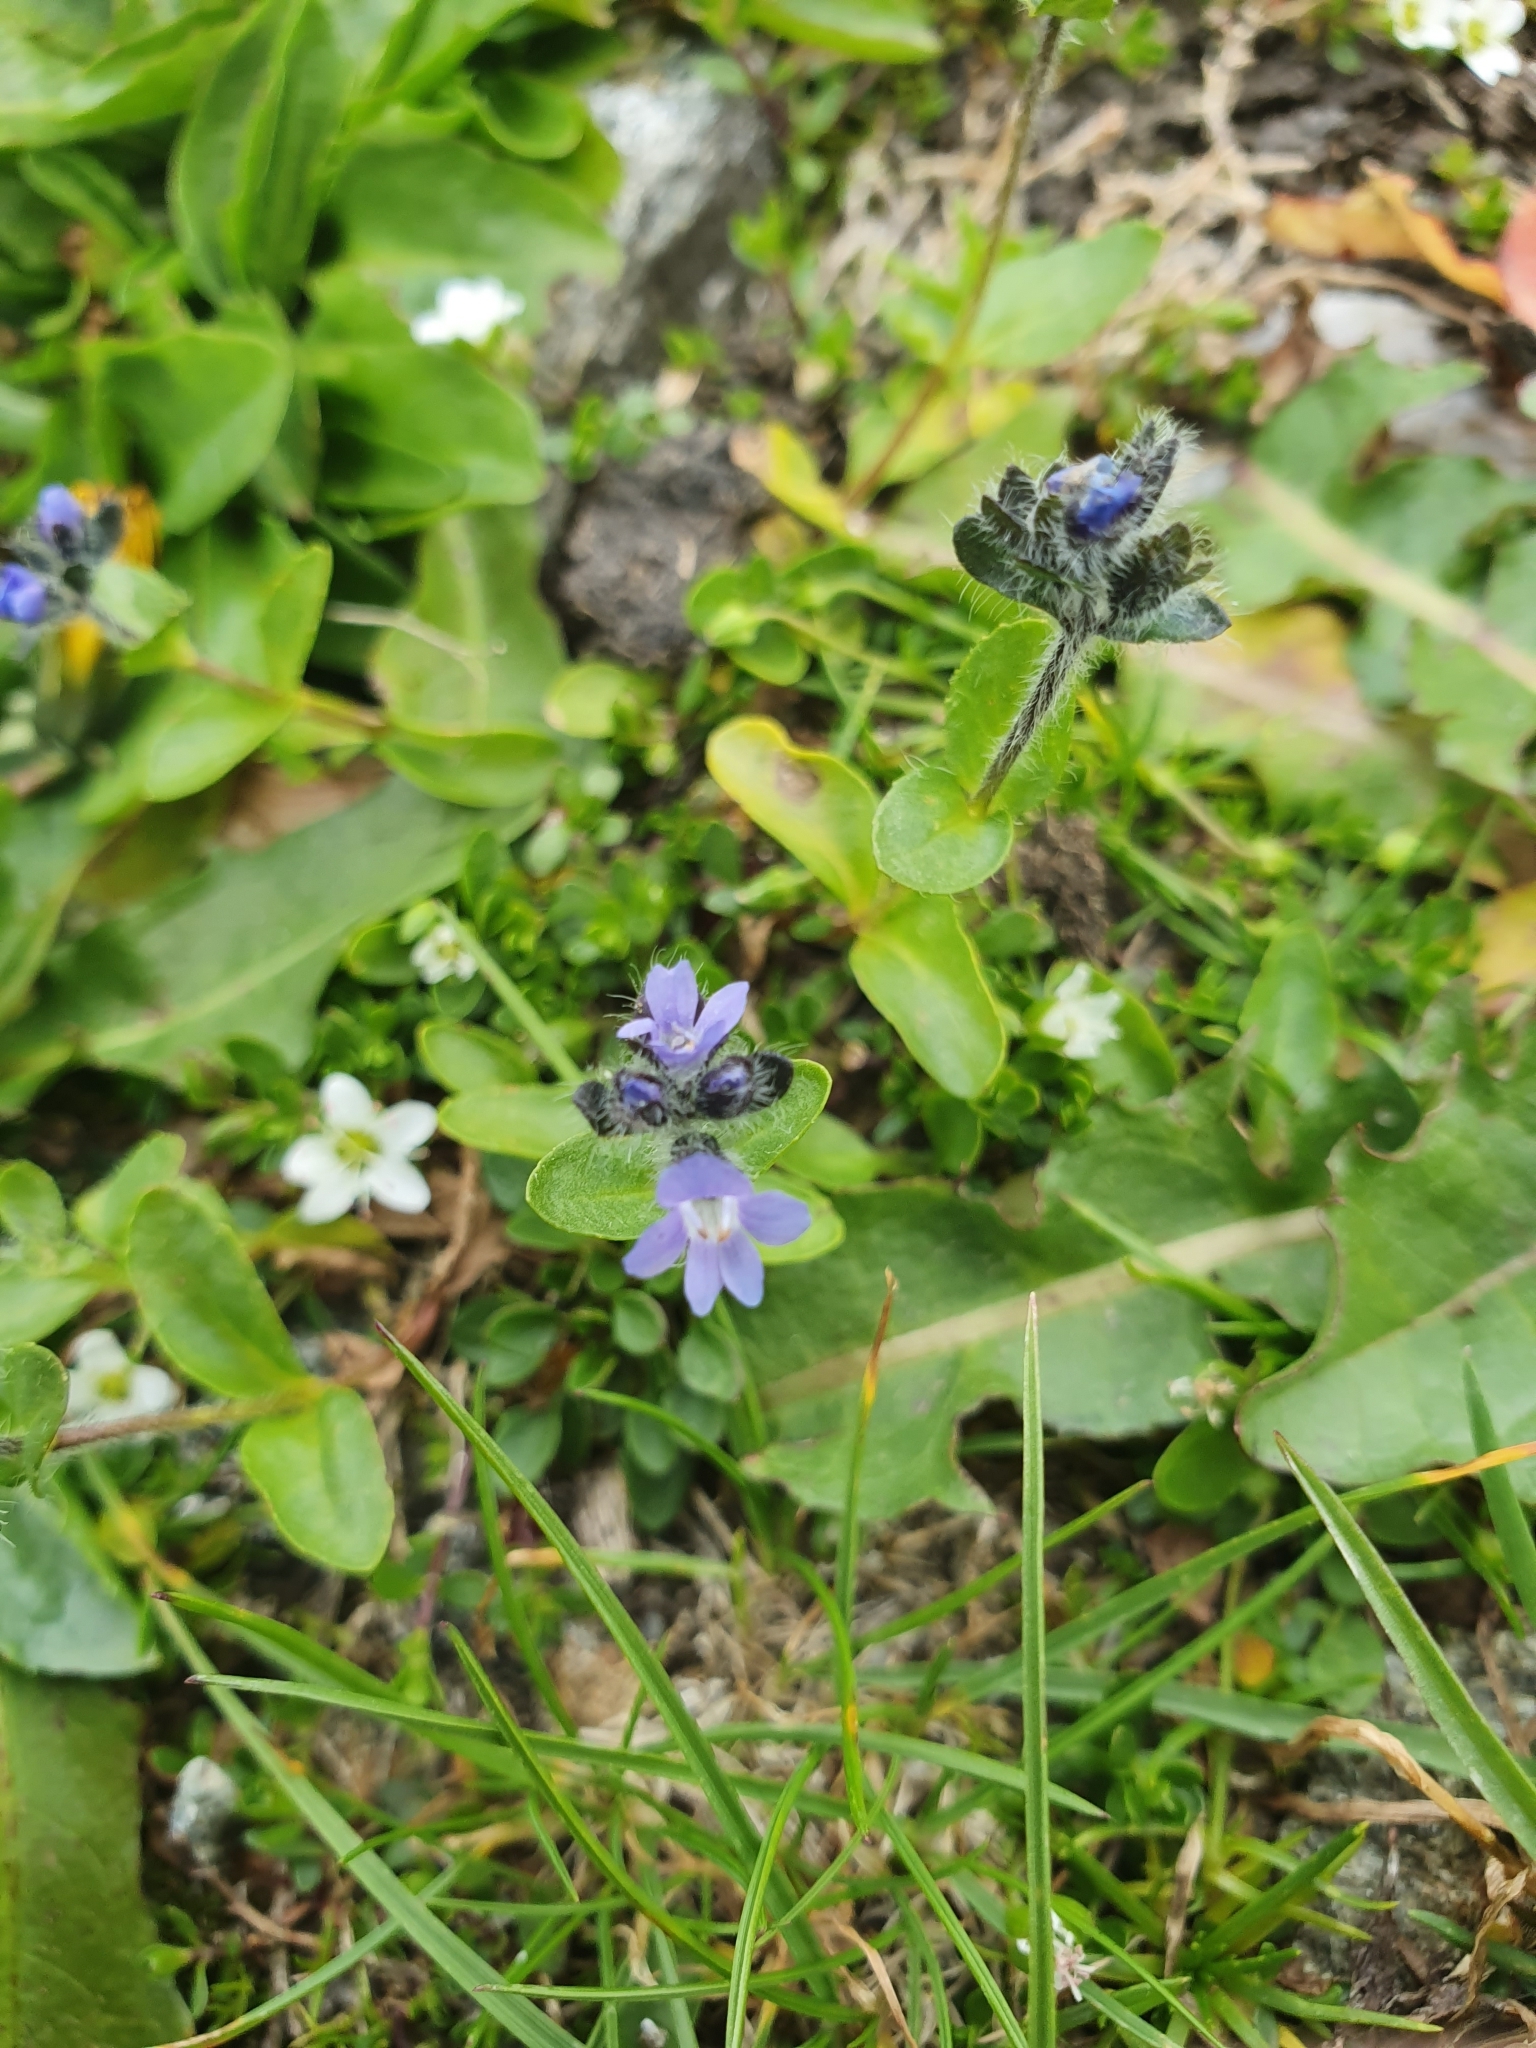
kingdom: Plantae
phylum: Tracheophyta
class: Magnoliopsida
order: Lamiales
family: Plantaginaceae
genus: Veronica
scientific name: Veronica alpina
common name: Alpine speedwell
